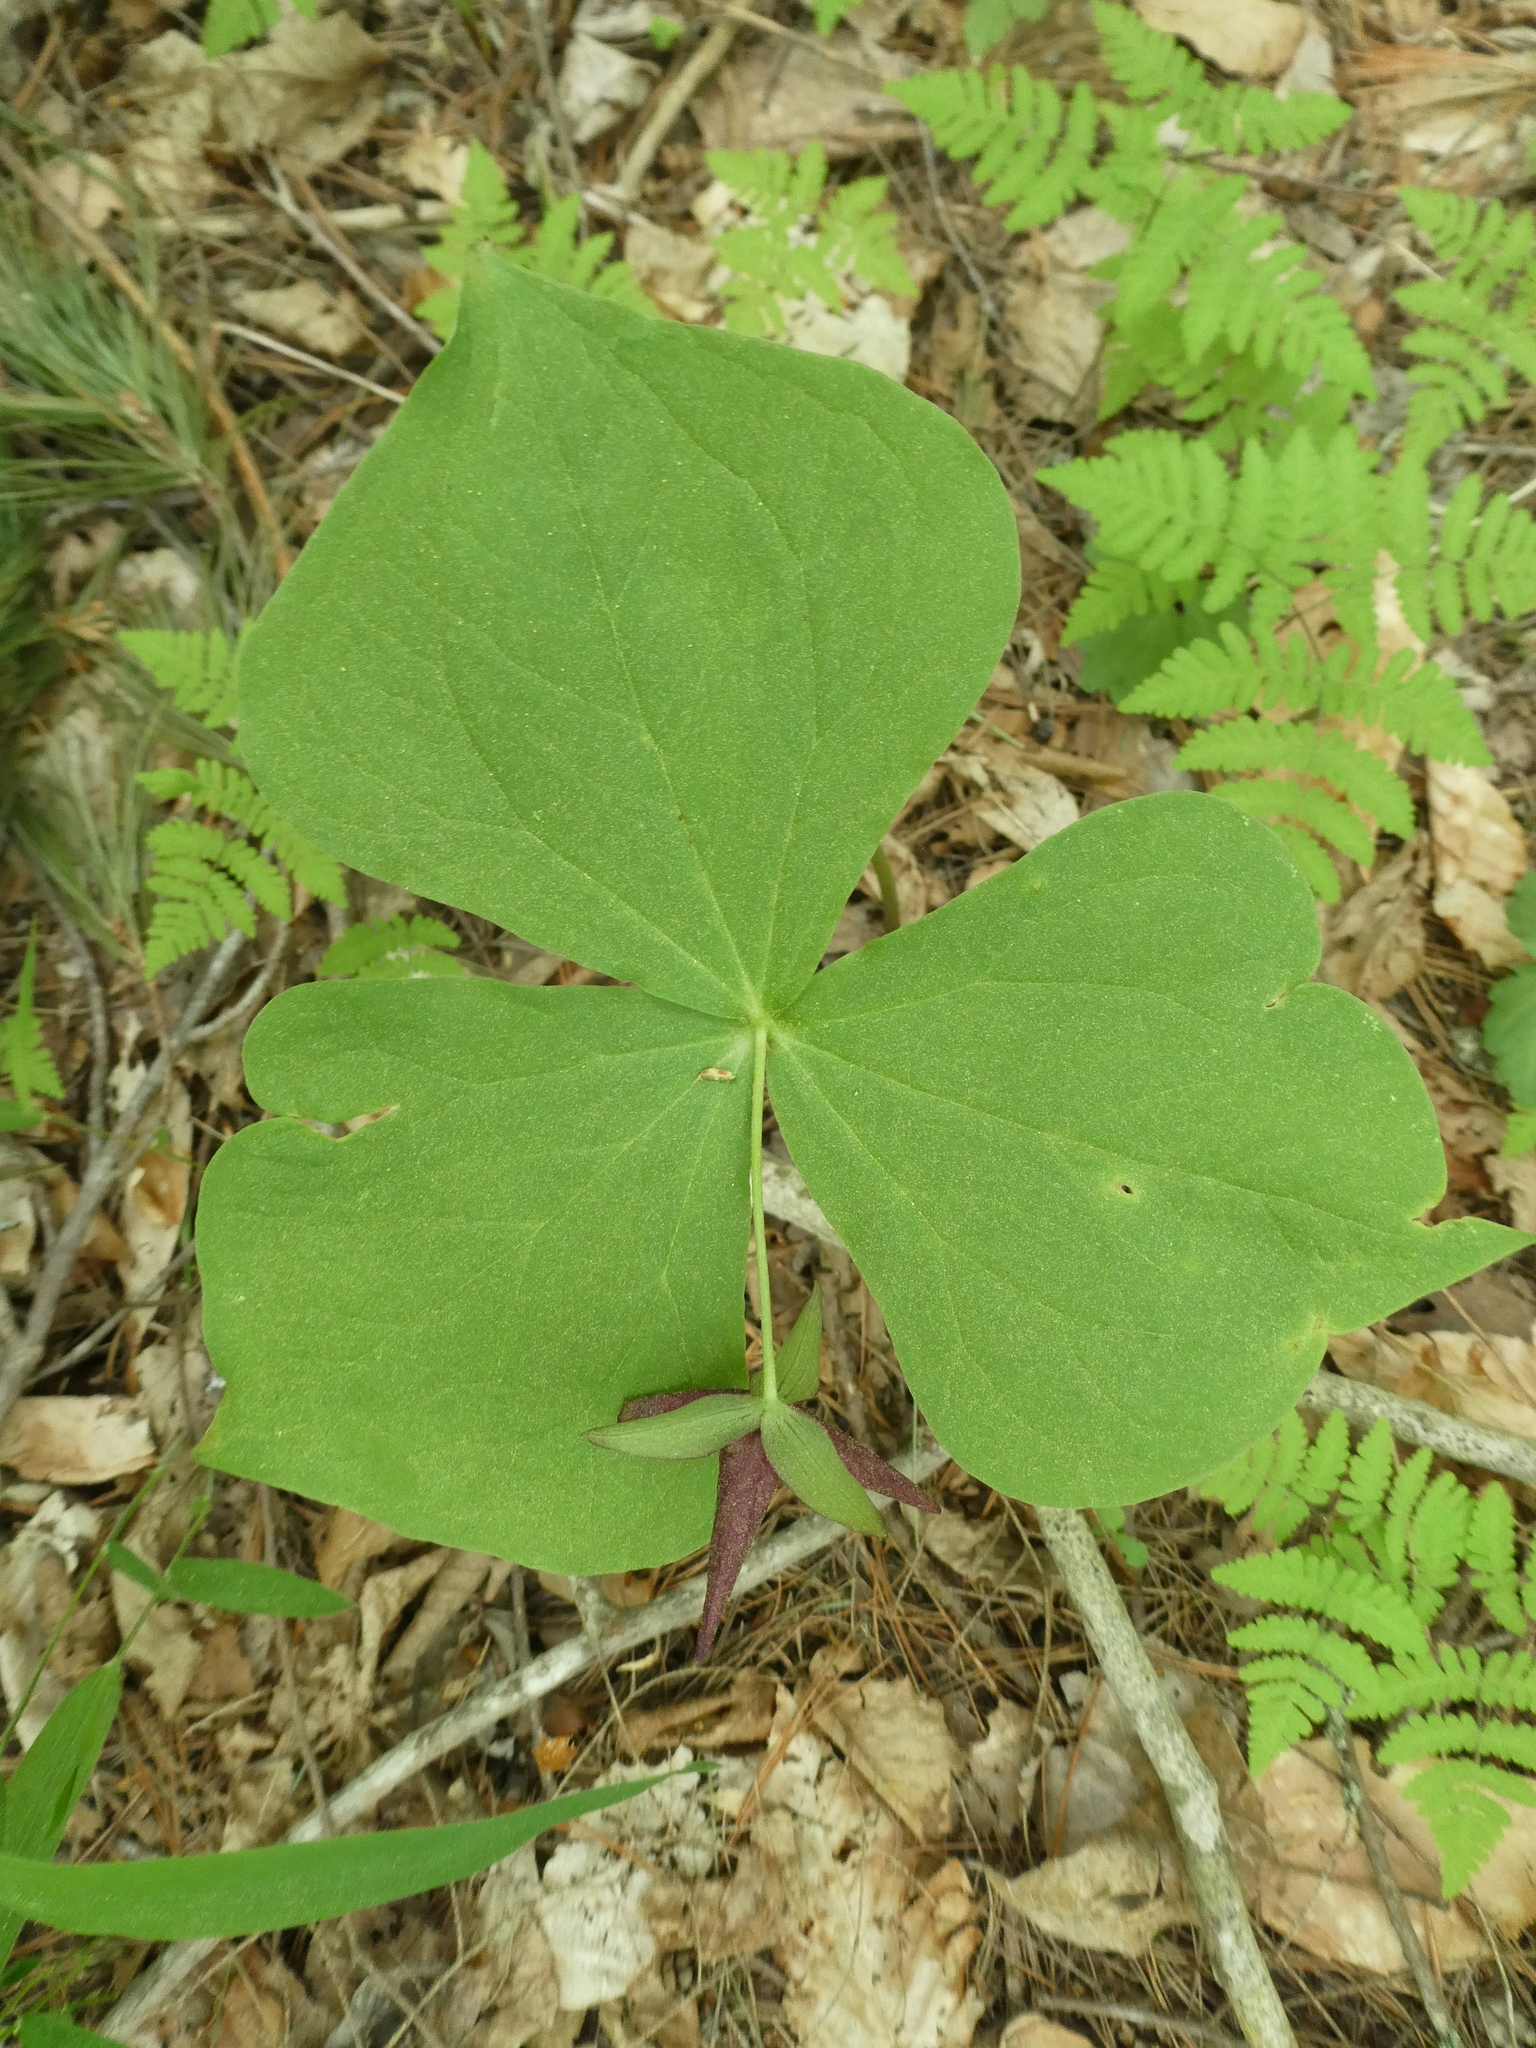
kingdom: Plantae
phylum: Tracheophyta
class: Liliopsida
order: Liliales
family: Melanthiaceae
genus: Trillium
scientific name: Trillium erectum
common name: Purple trillium
